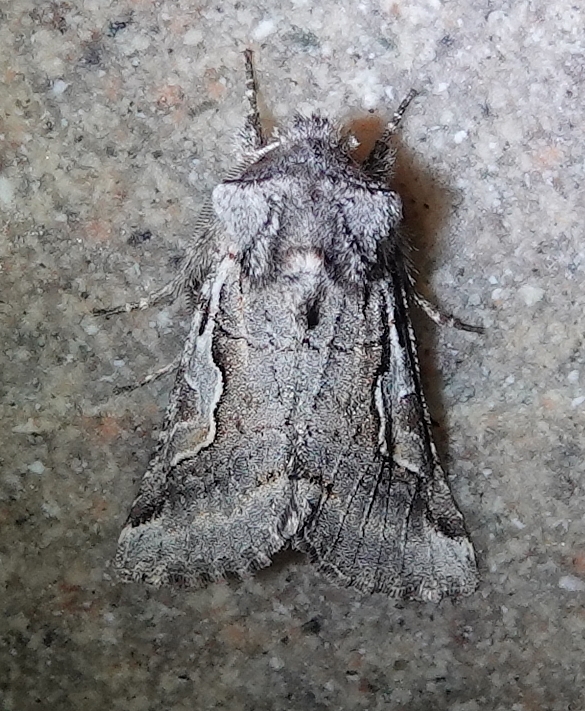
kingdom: Animalia
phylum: Arthropoda
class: Insecta
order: Lepidoptera
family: Noctuidae
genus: Stretchia
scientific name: Stretchia plusiaeformis
